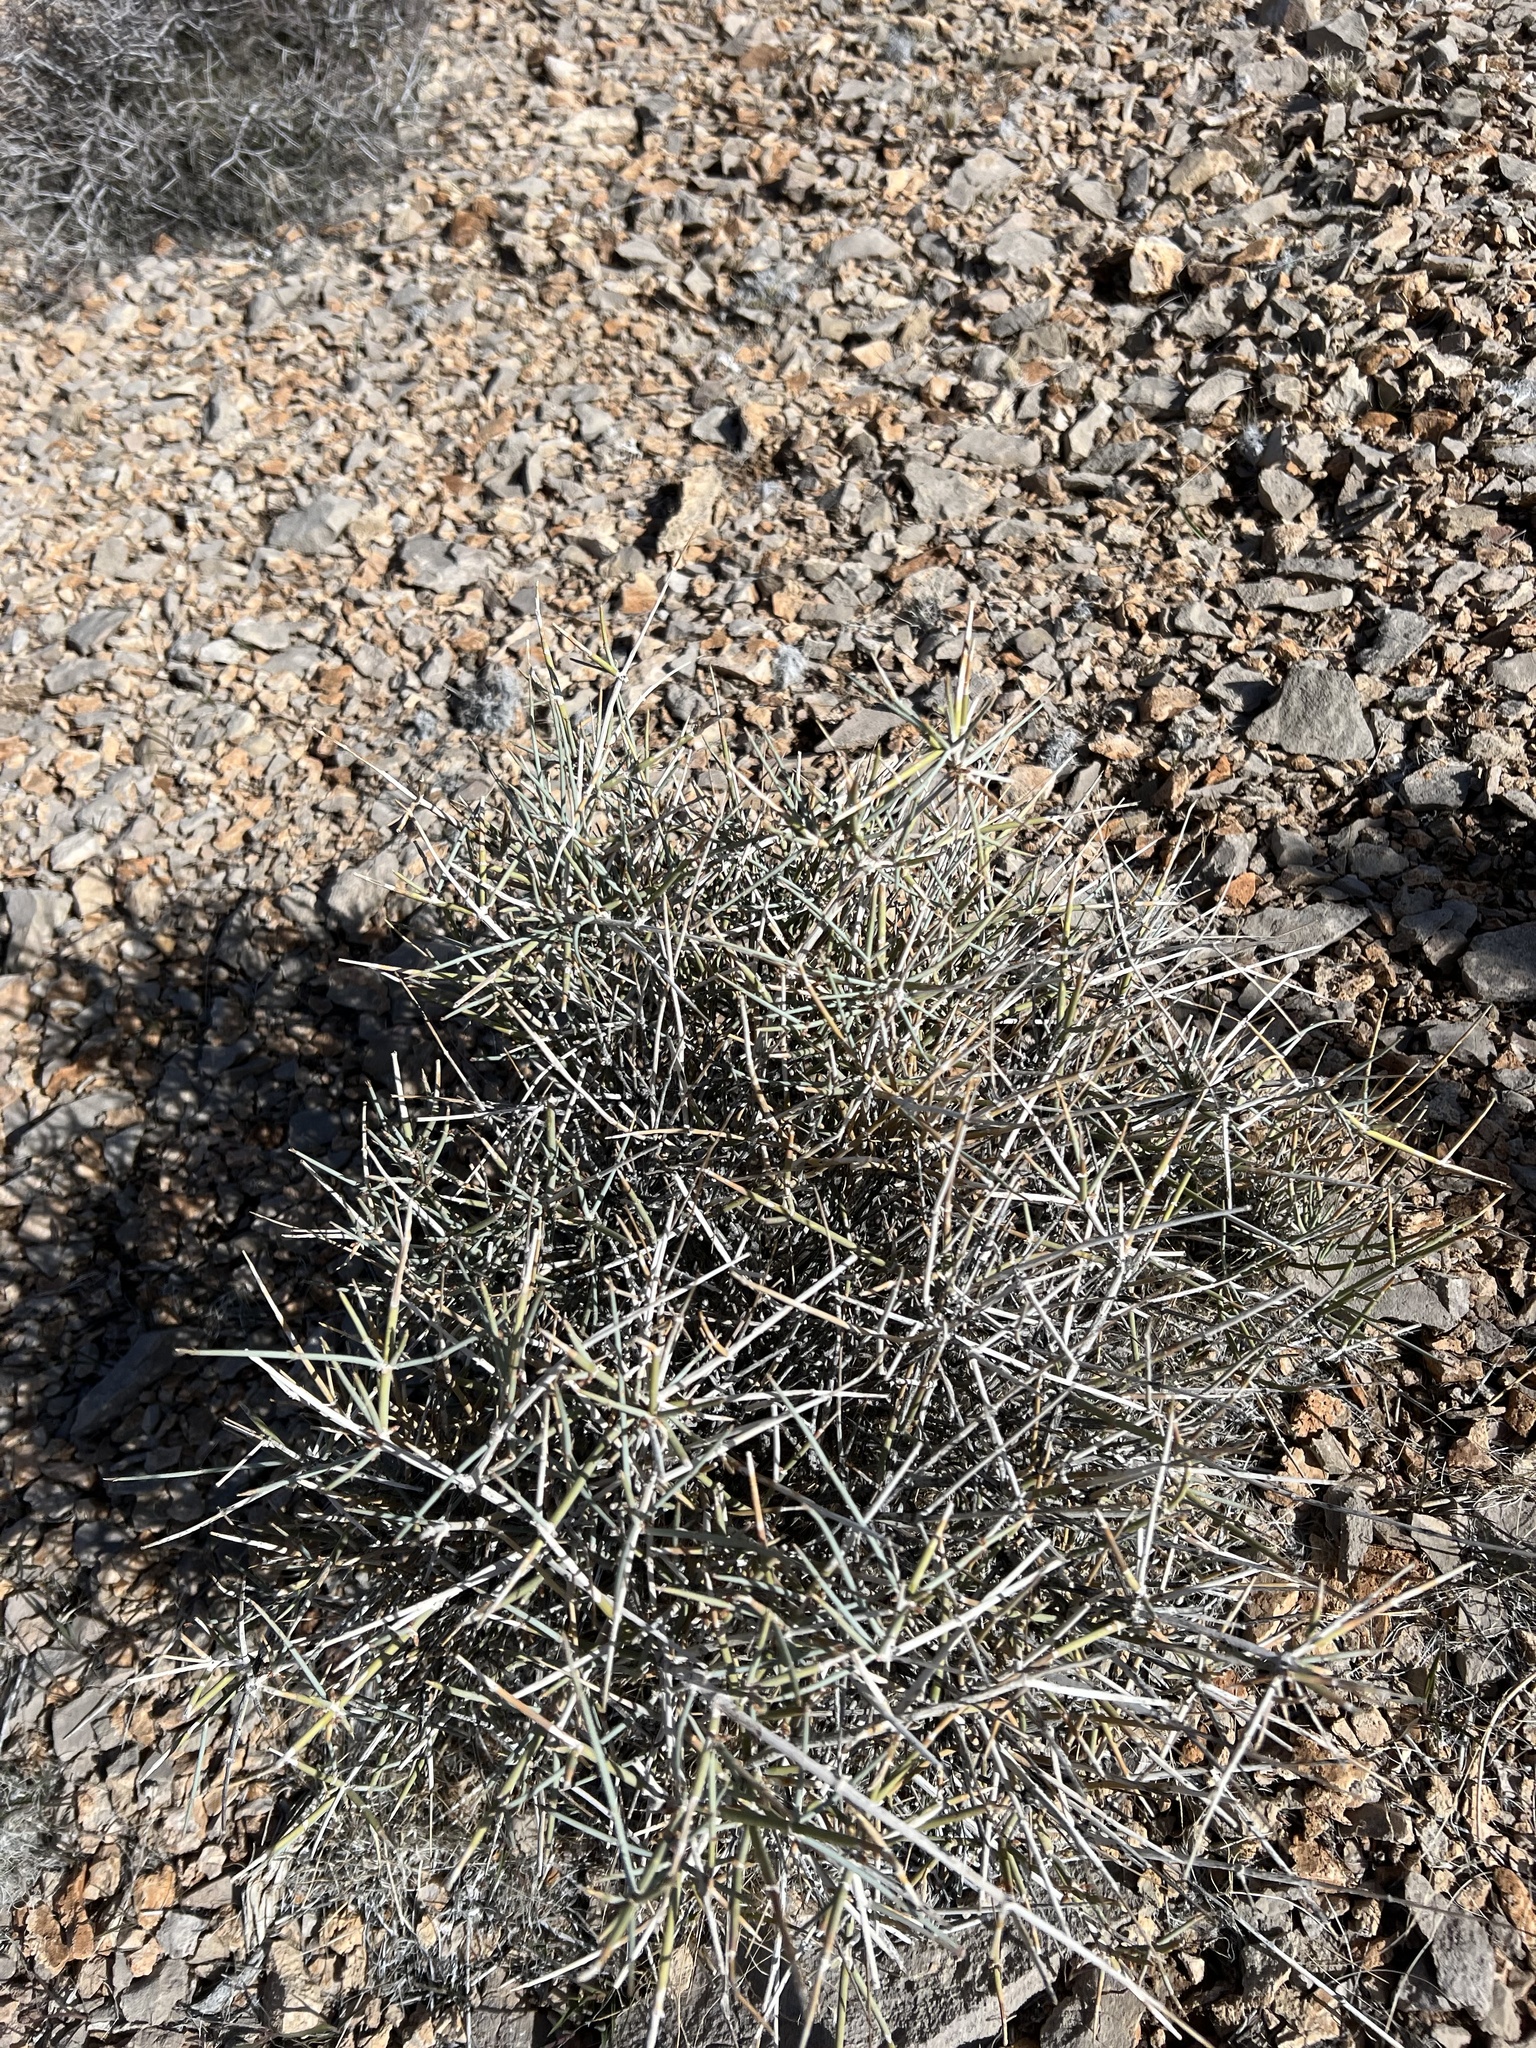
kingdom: Plantae
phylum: Tracheophyta
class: Gnetopsida
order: Ephedrales
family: Ephedraceae
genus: Ephedra
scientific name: Ephedra nevadensis
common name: Gray ephedra
